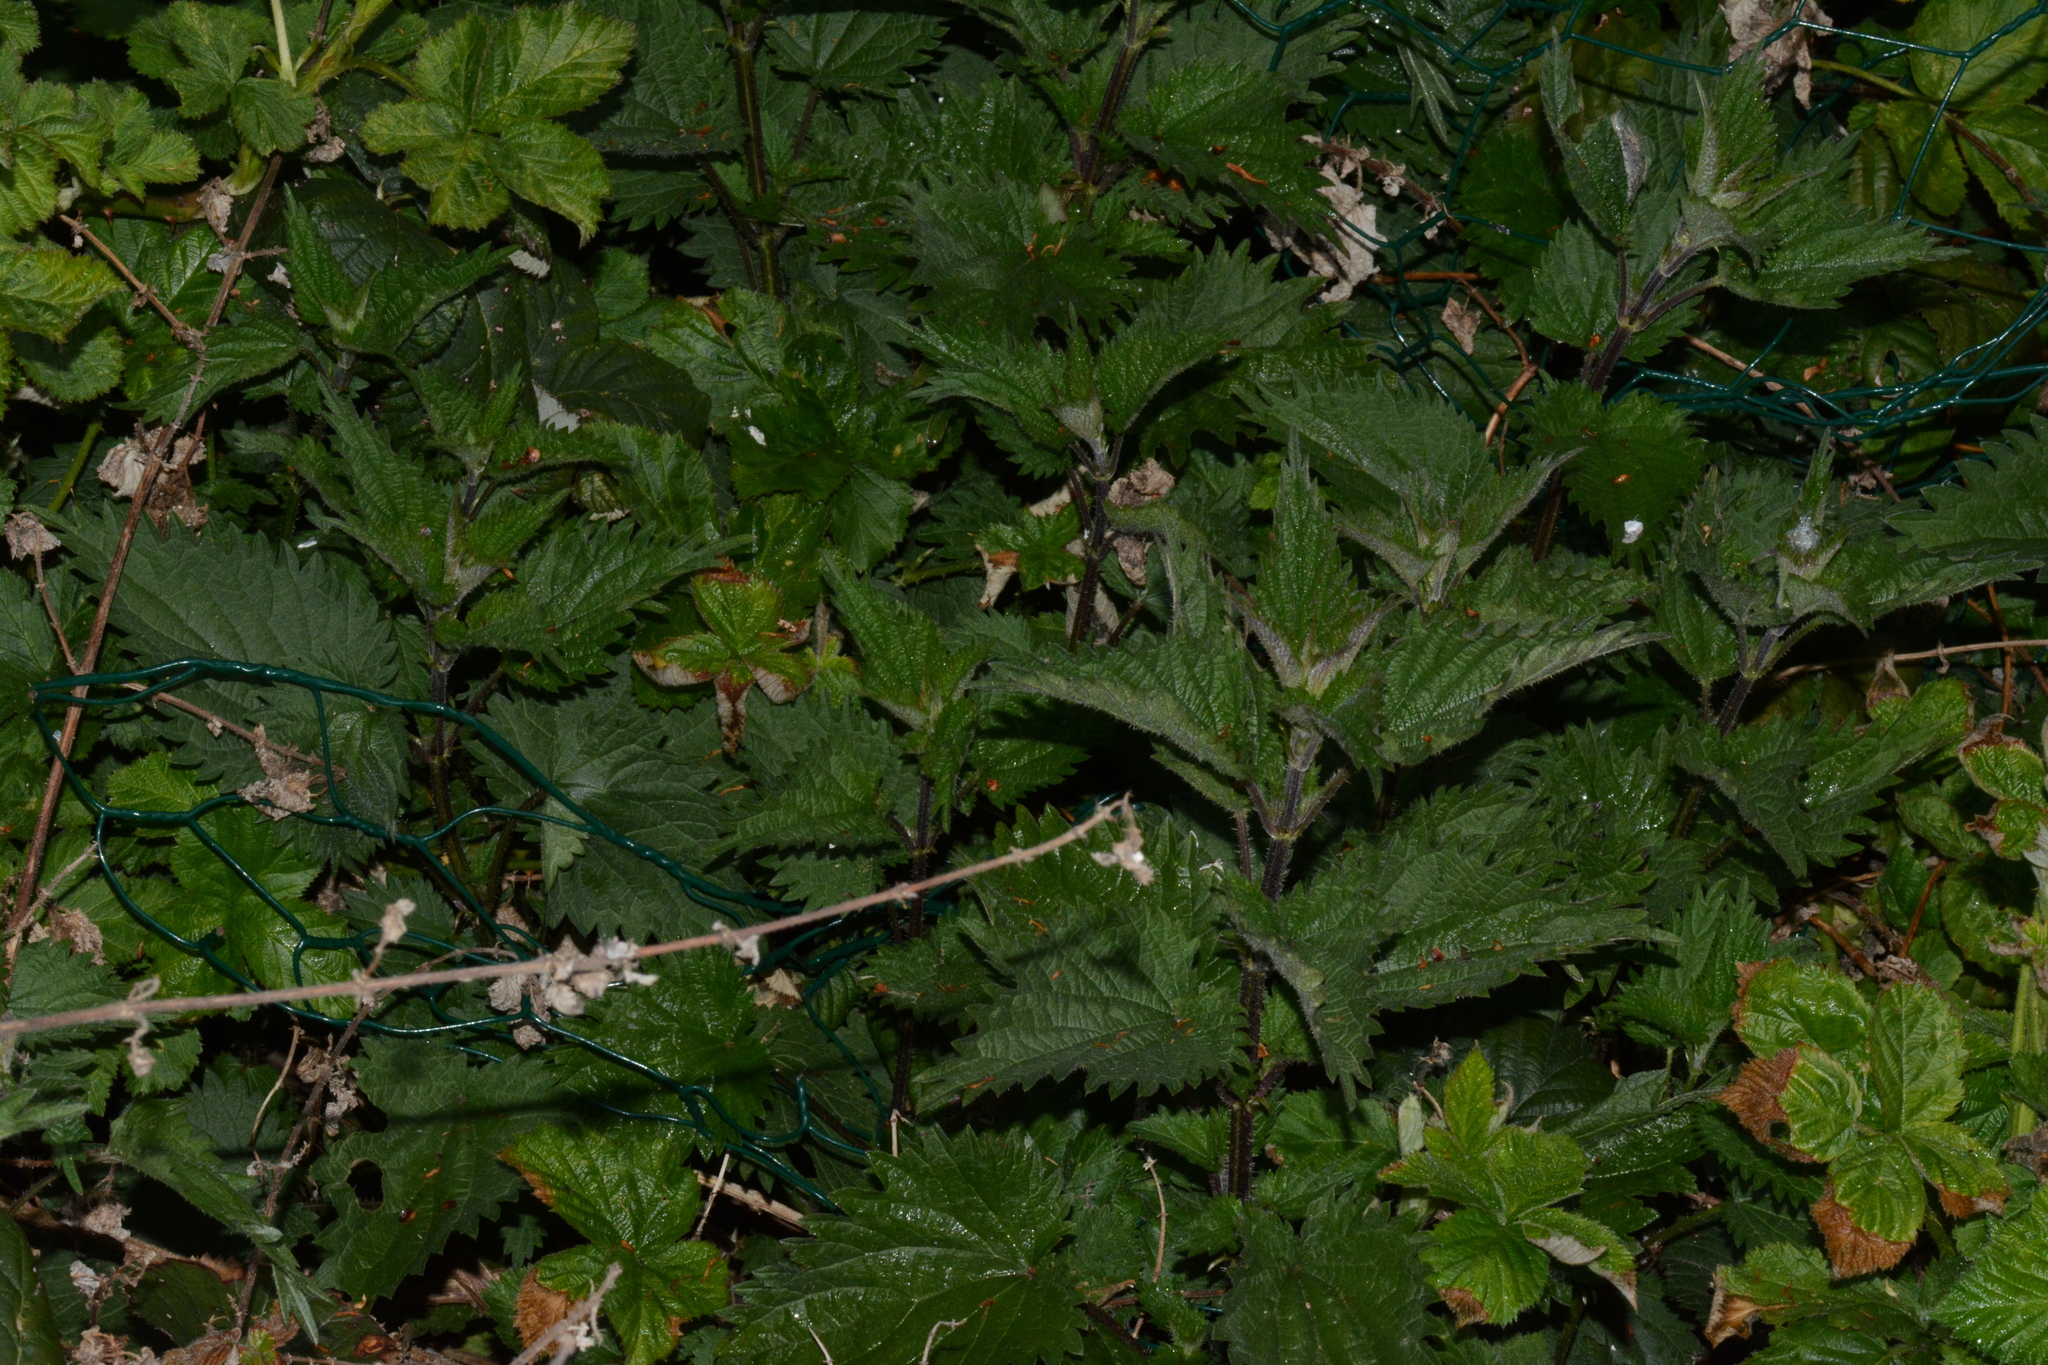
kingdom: Plantae
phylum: Tracheophyta
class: Magnoliopsida
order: Rosales
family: Urticaceae
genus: Urtica
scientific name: Urtica dioica
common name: Common nettle
